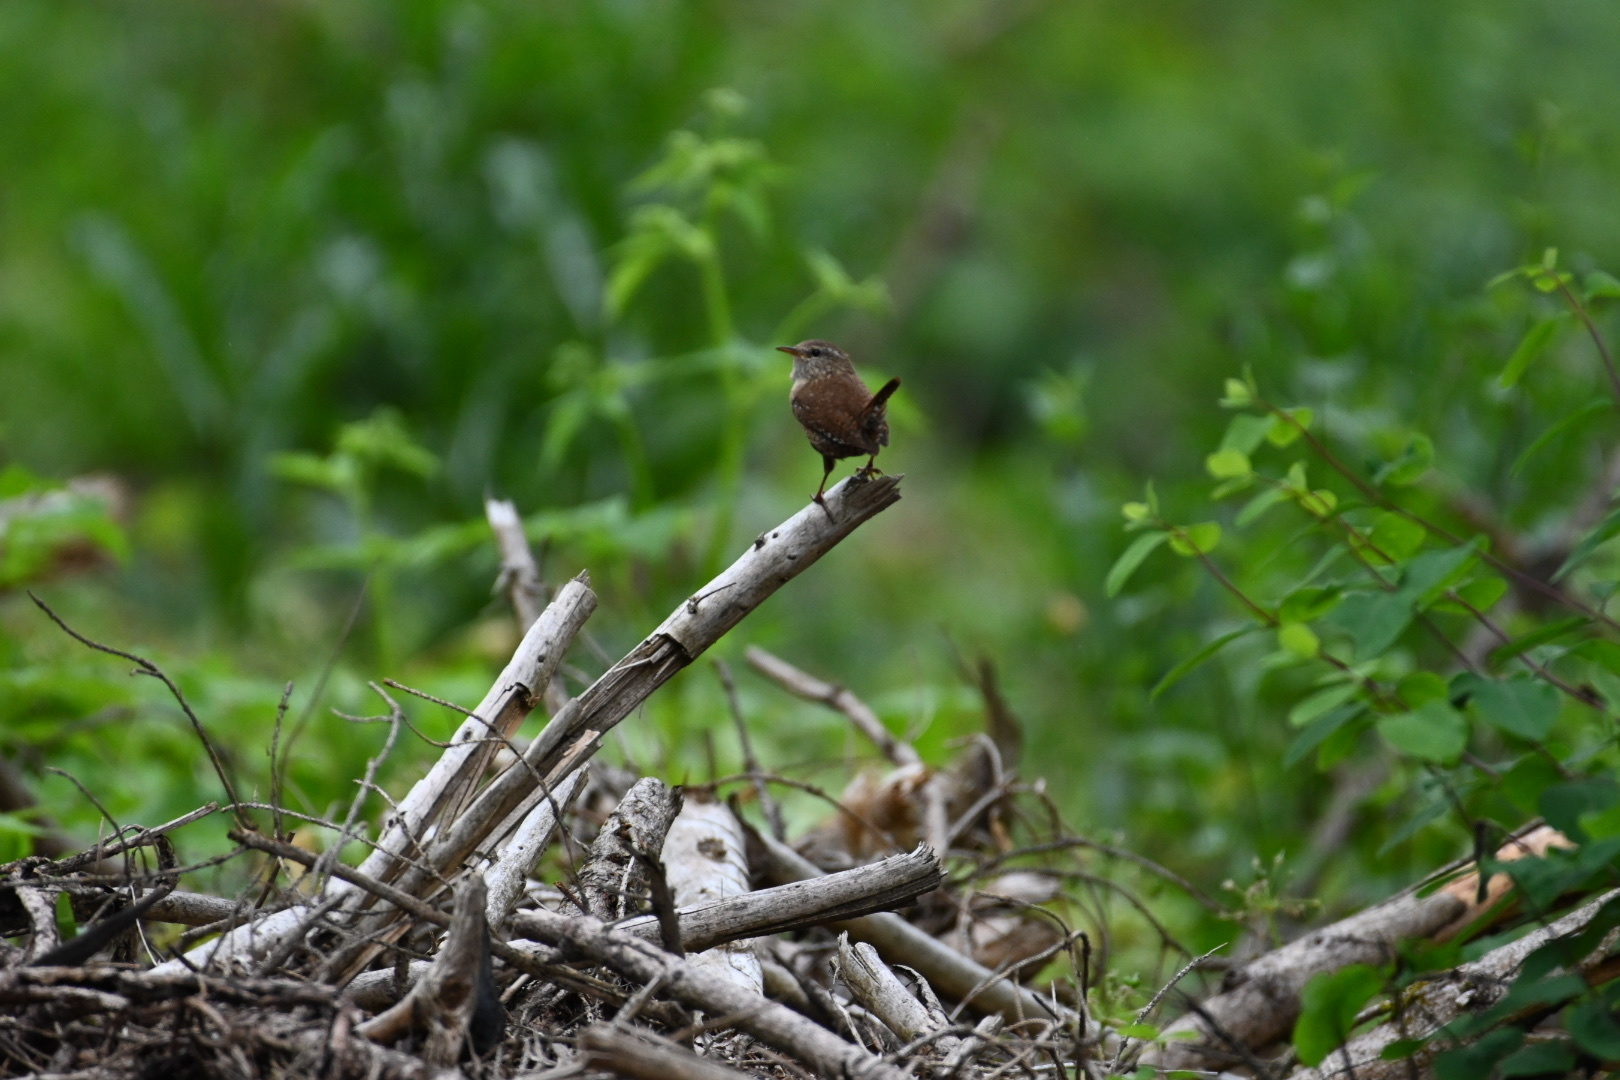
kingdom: Animalia
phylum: Chordata
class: Aves
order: Passeriformes
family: Troglodytidae
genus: Troglodytes
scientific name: Troglodytes troglodytes
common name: Eurasian wren
